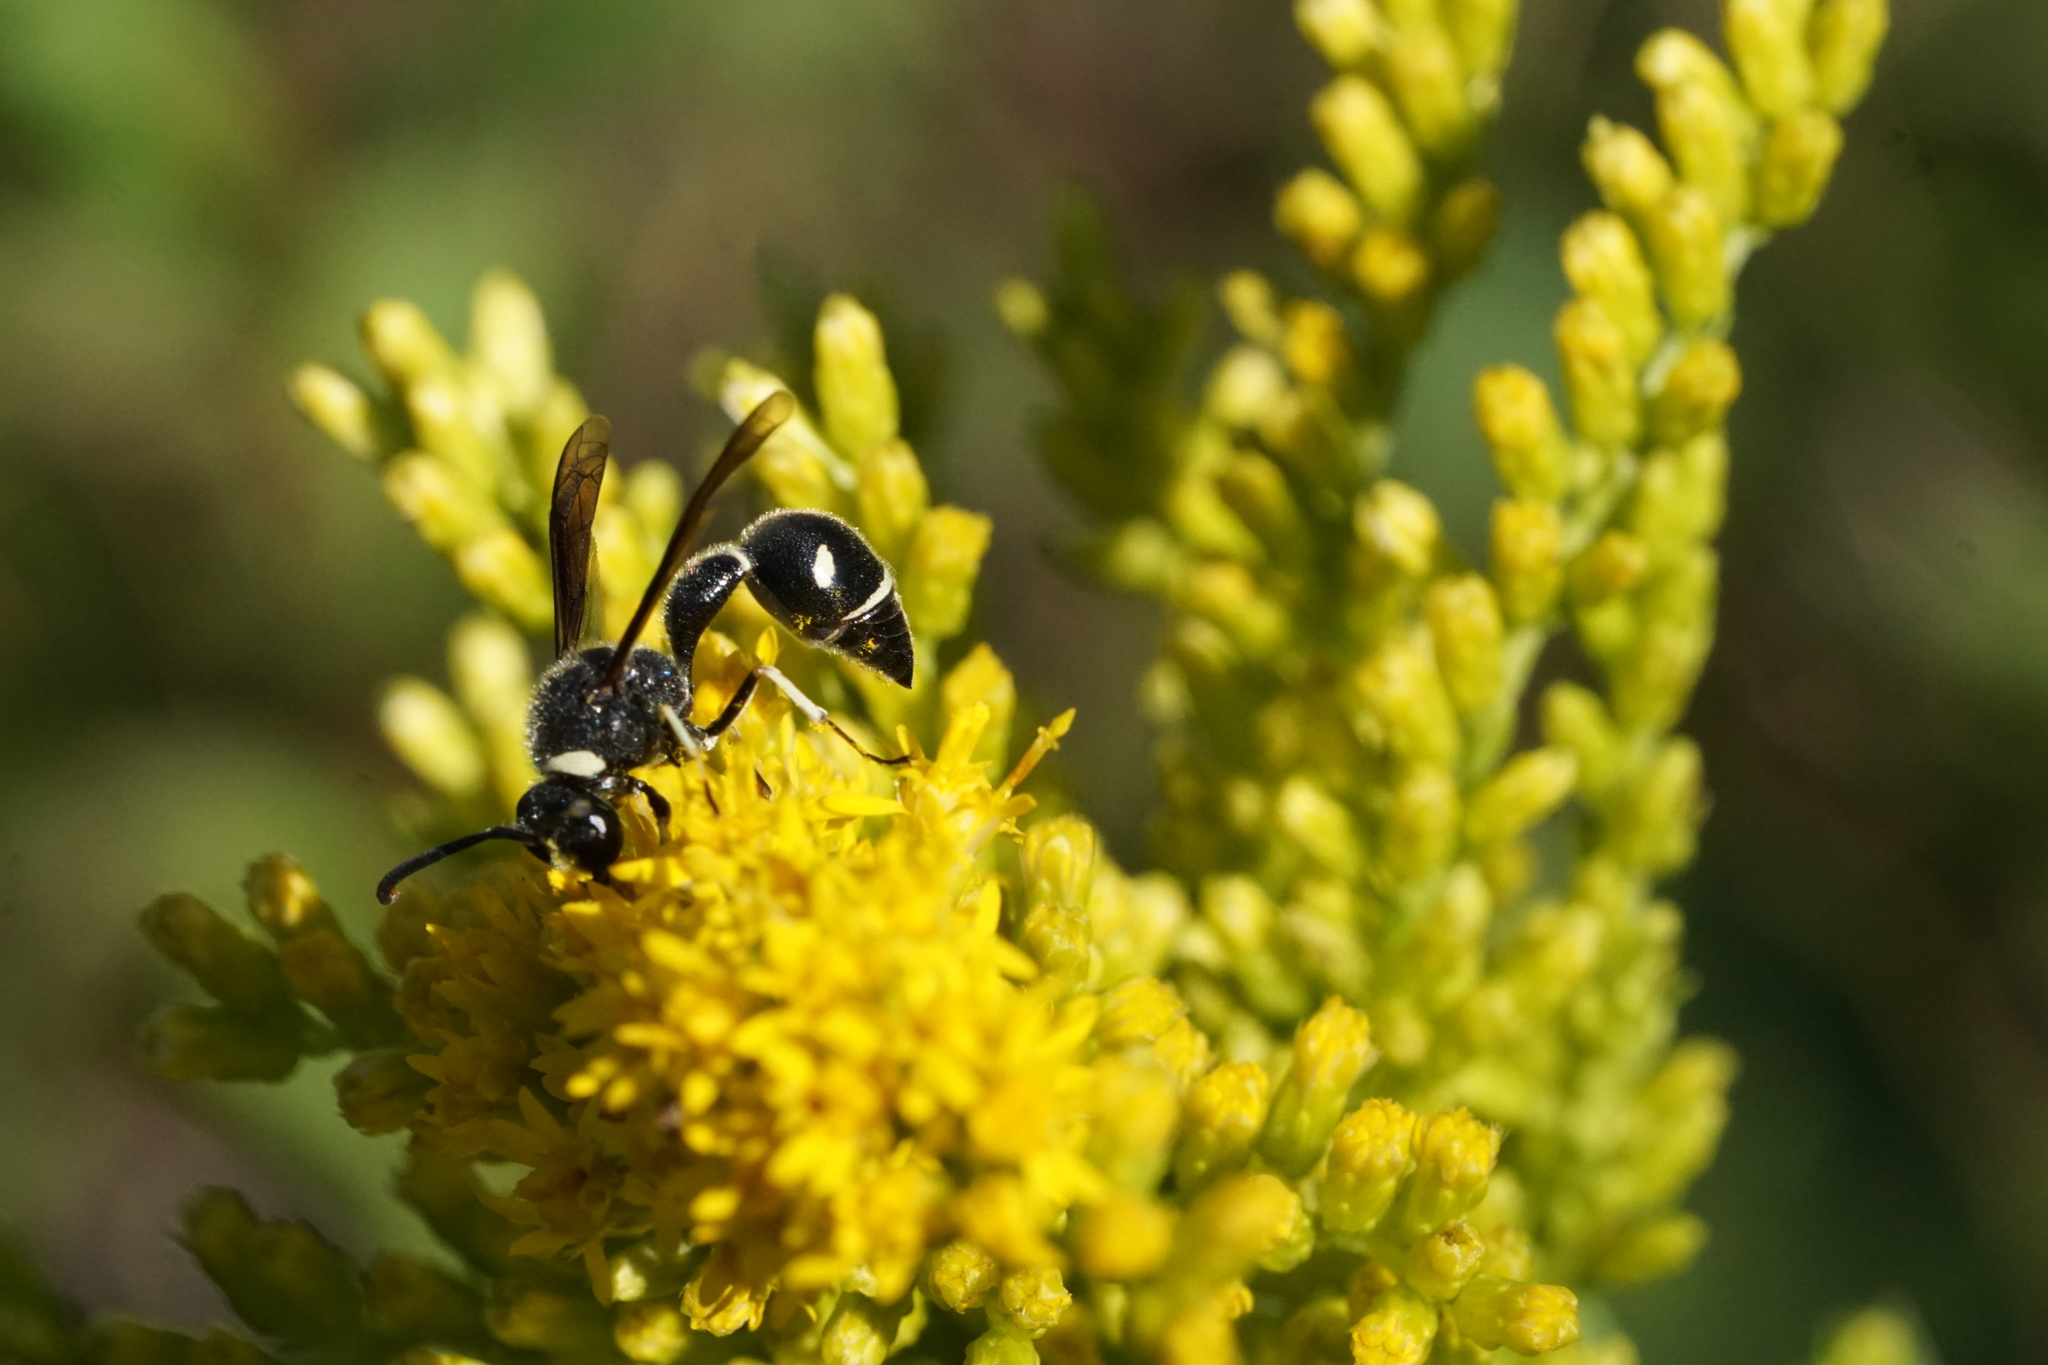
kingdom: Animalia
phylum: Arthropoda
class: Insecta
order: Hymenoptera
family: Vespidae
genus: Eumenes
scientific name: Eumenes fraternus
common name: Fraternal potter wasp
